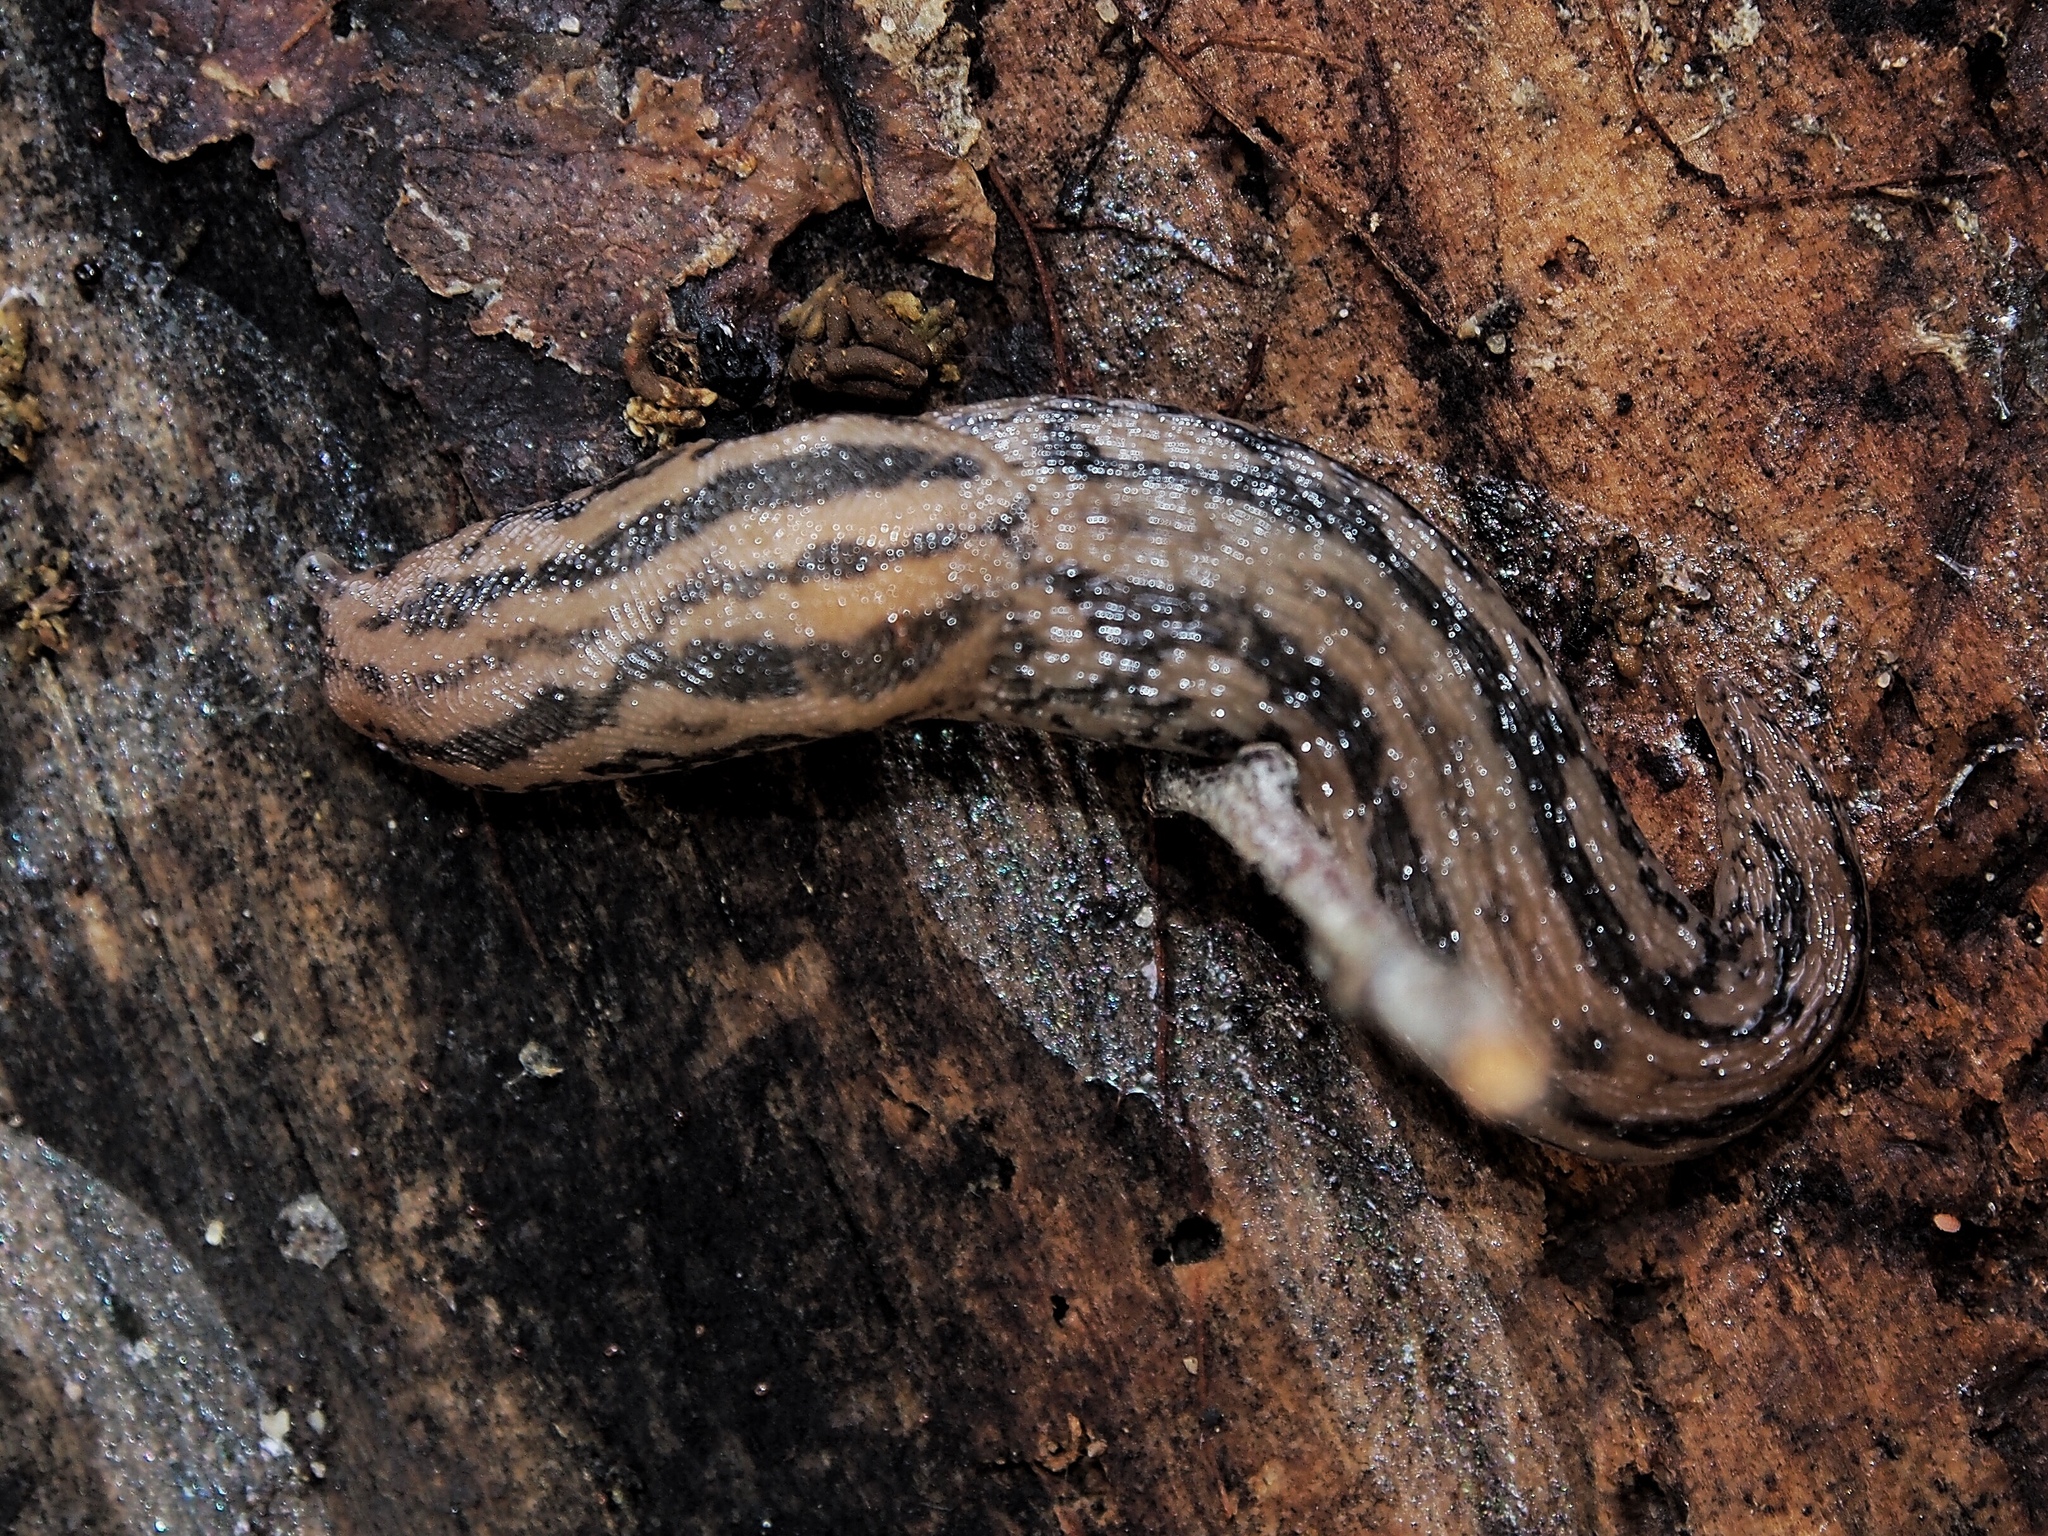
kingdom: Animalia
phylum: Mollusca
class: Gastropoda
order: Stylommatophora
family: Limacidae
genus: Ambigolimax
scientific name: Ambigolimax
